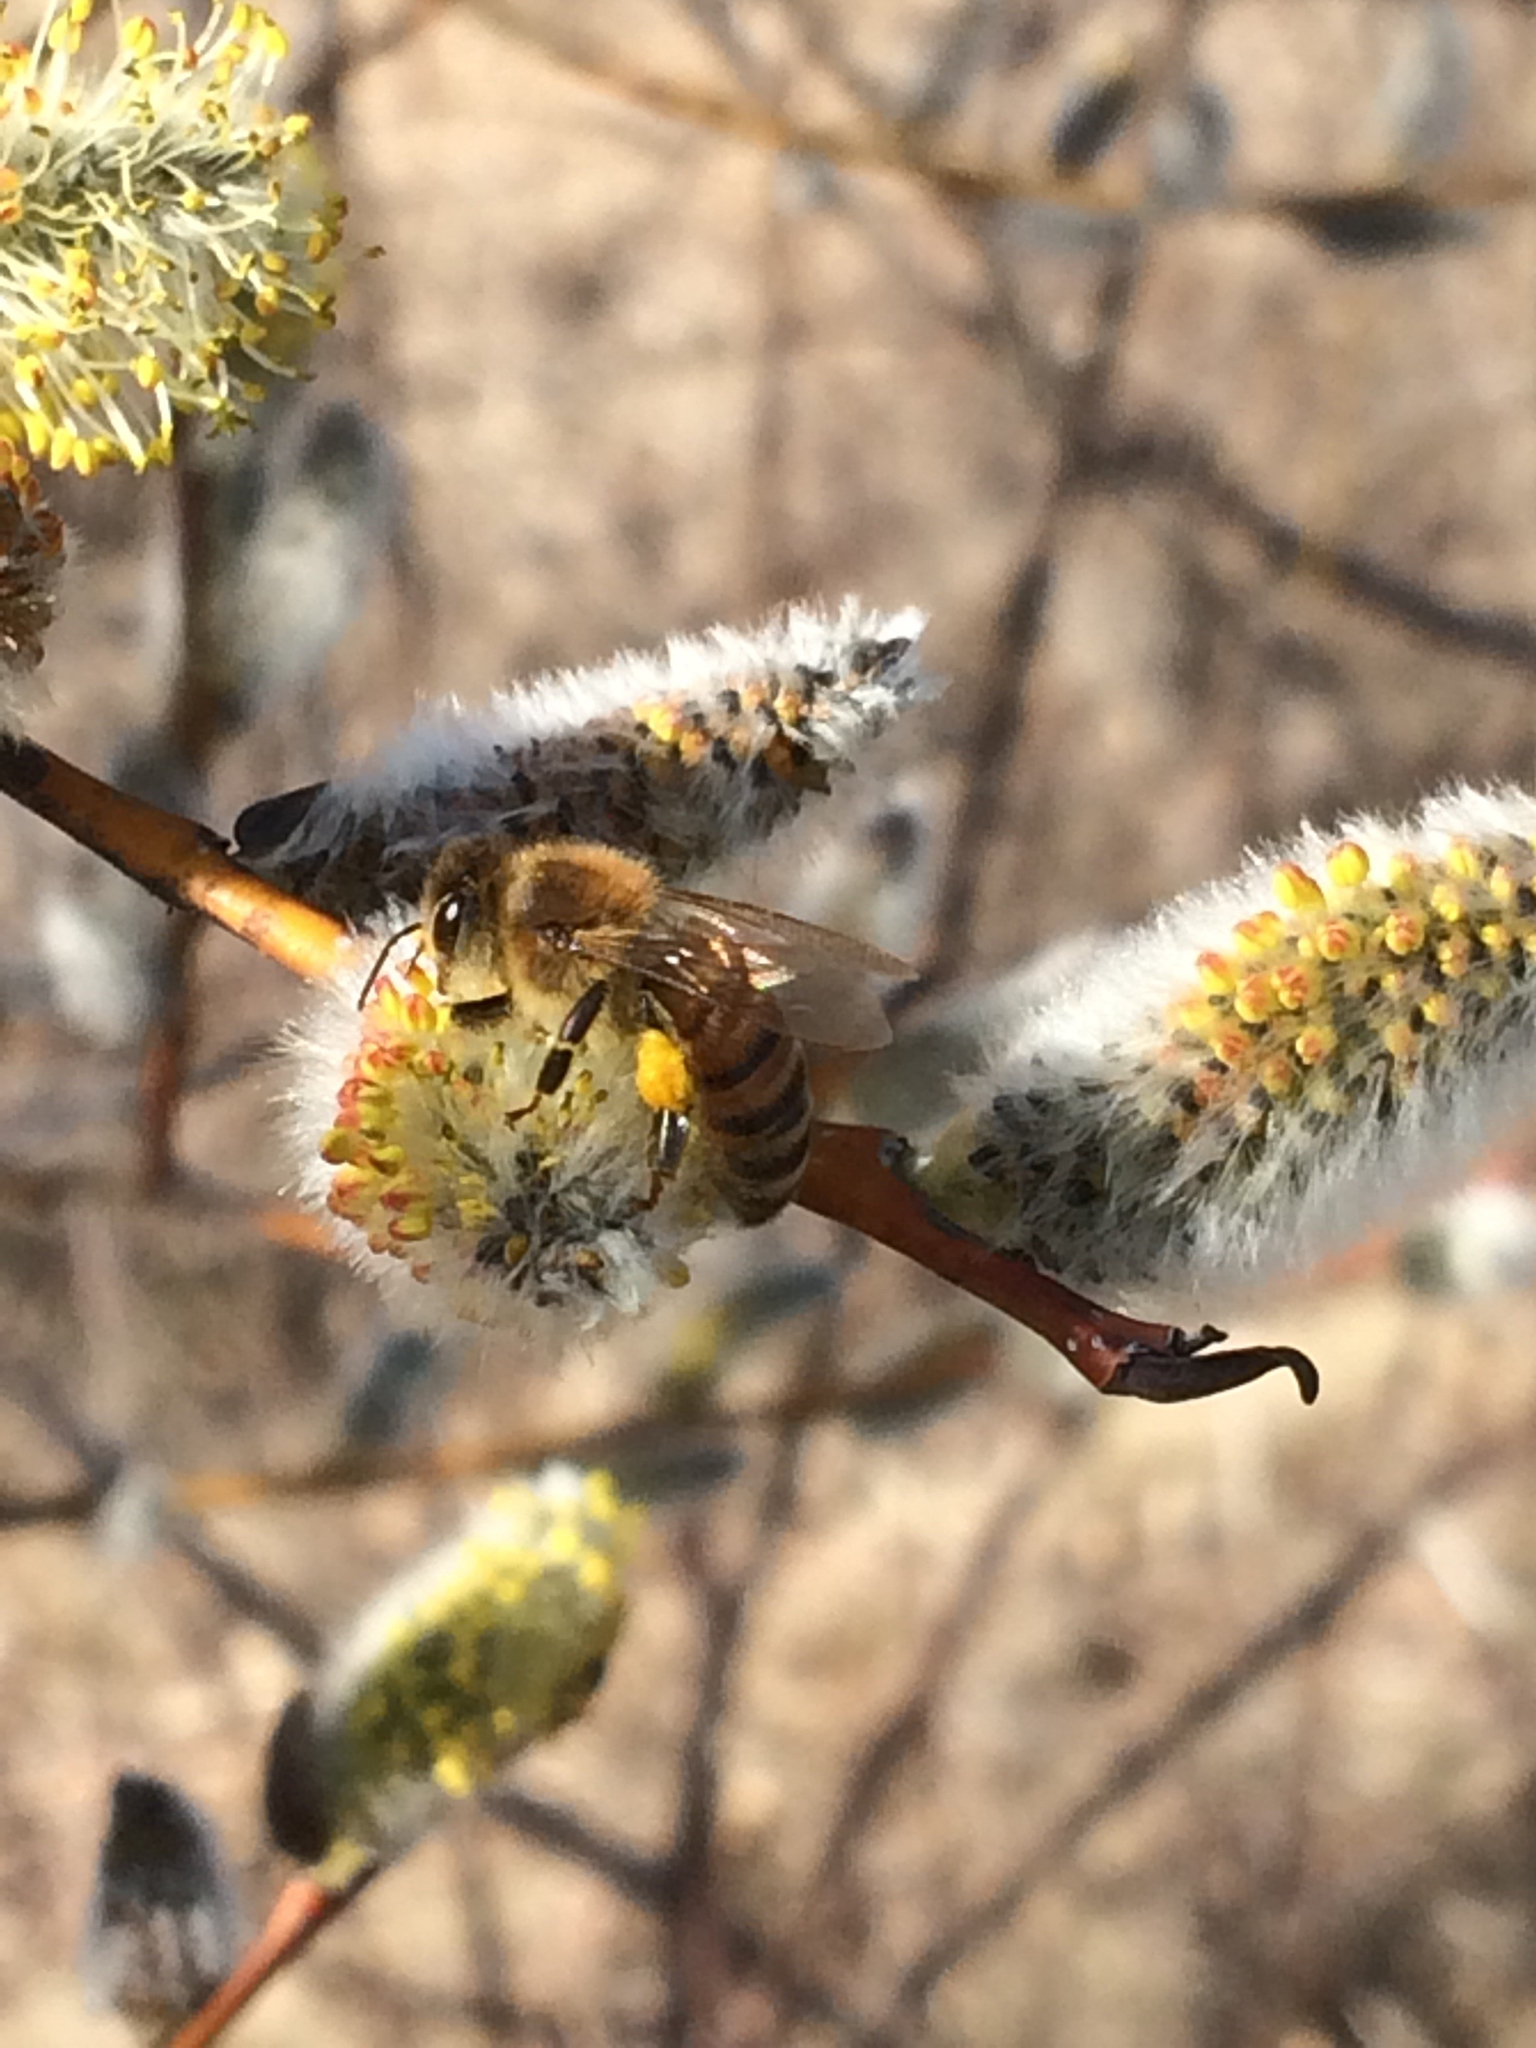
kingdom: Animalia
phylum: Arthropoda
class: Insecta
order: Hymenoptera
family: Apidae
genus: Apis
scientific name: Apis mellifera
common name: Honey bee
